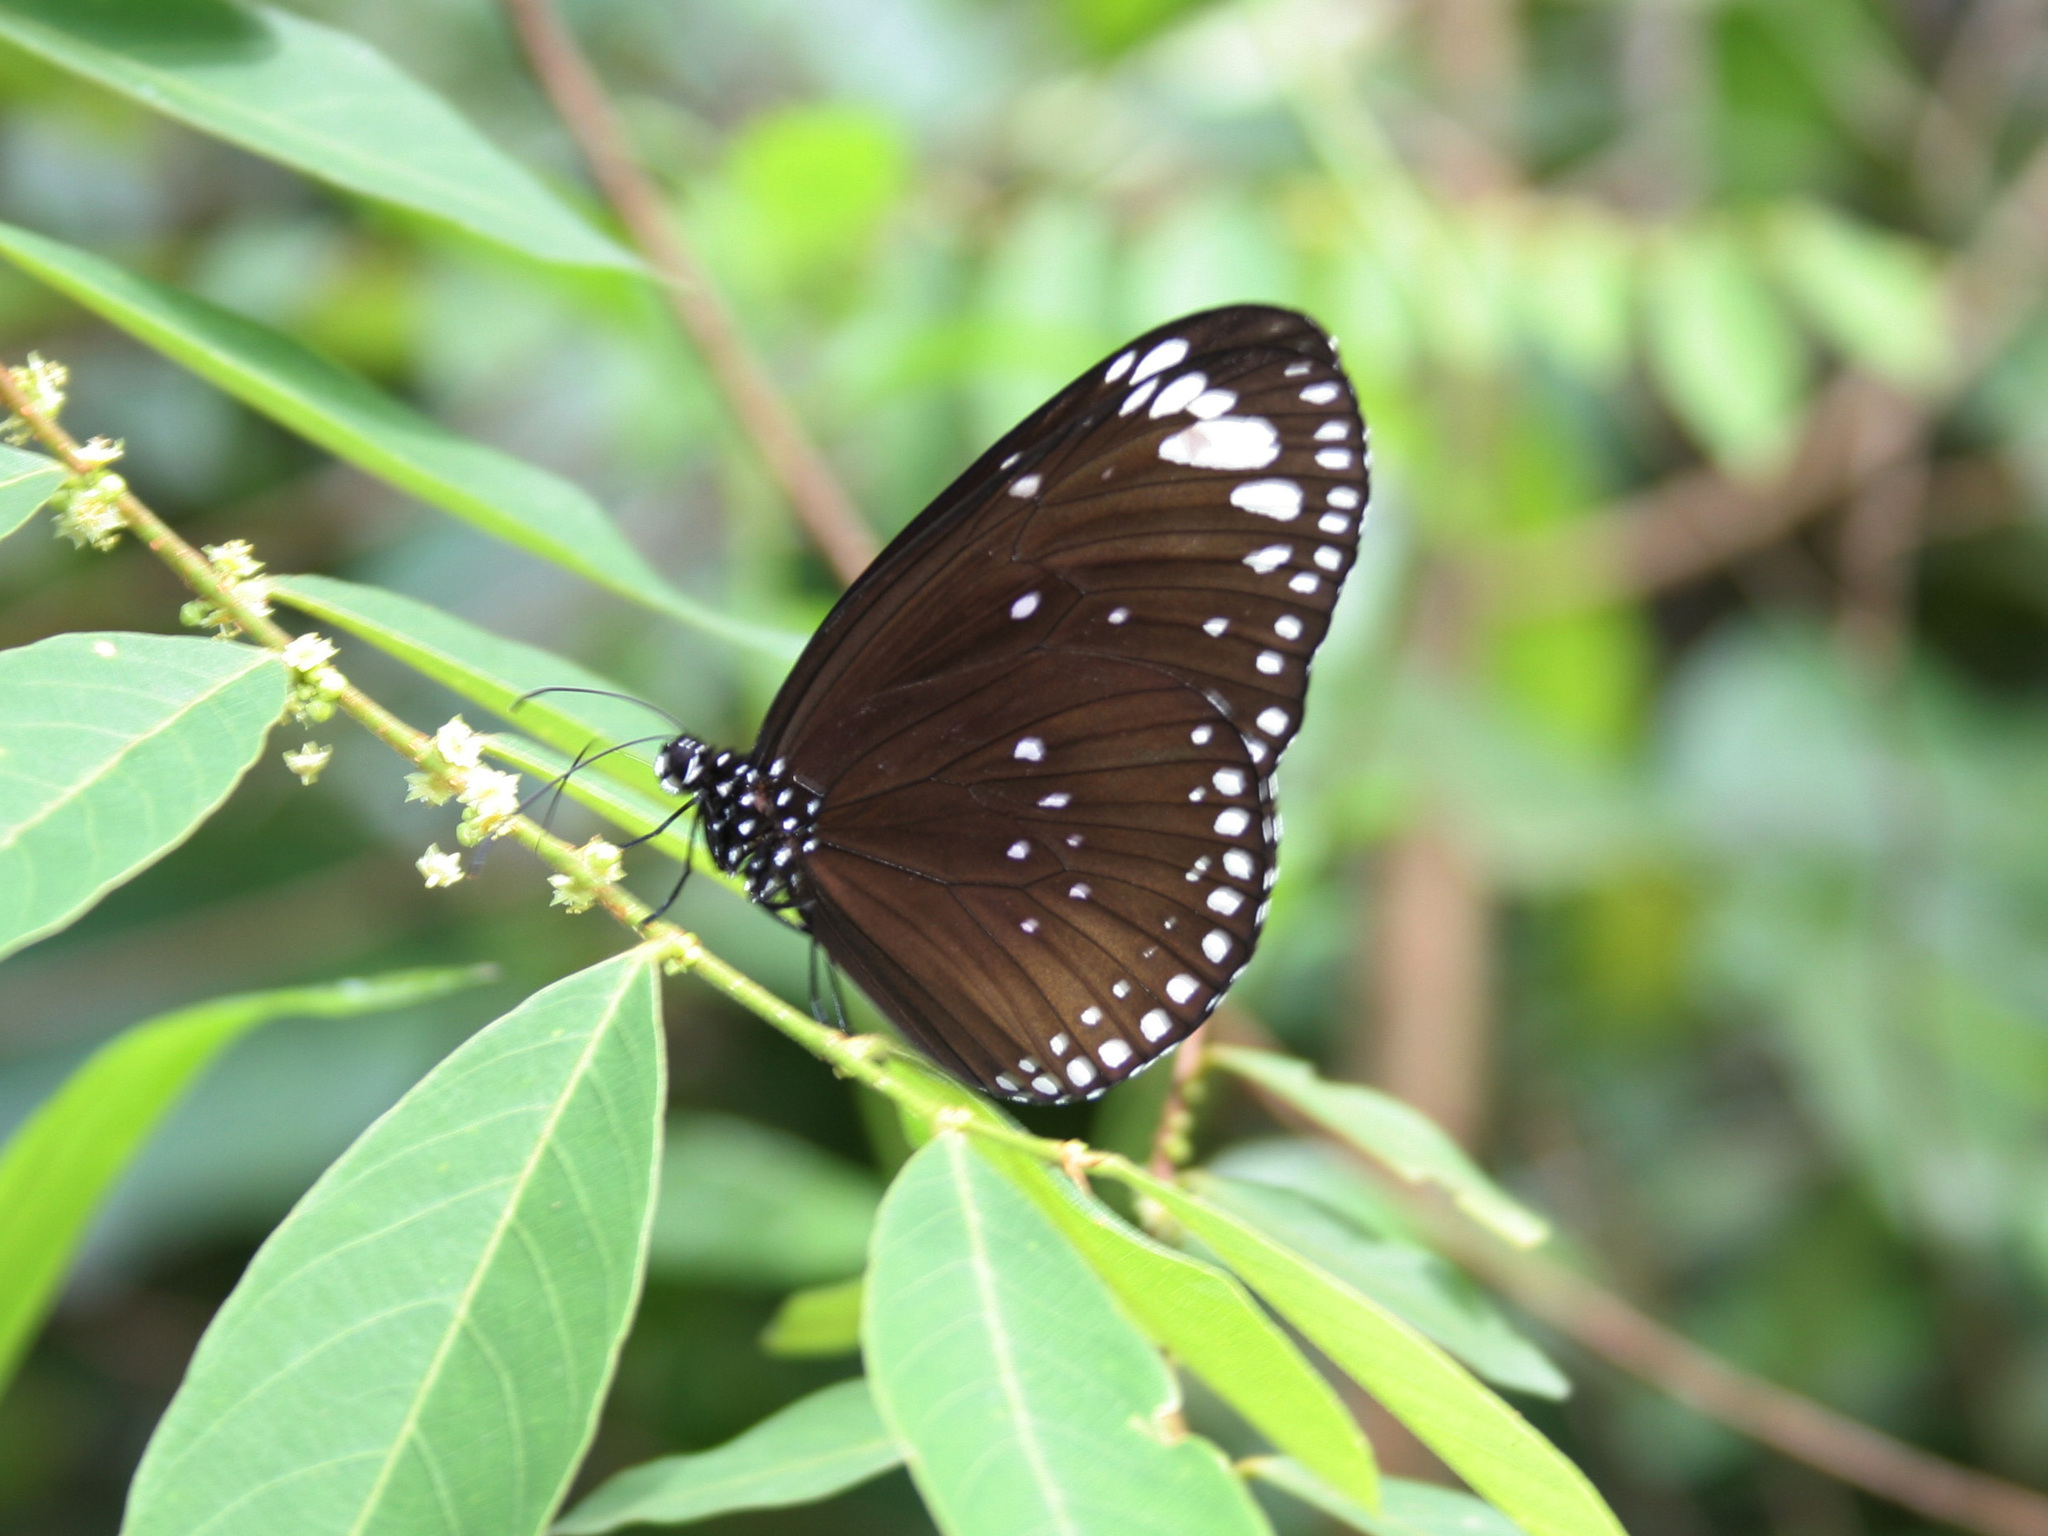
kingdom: Animalia
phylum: Arthropoda
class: Insecta
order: Lepidoptera
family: Nymphalidae
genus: Euploea
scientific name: Euploea crameri
